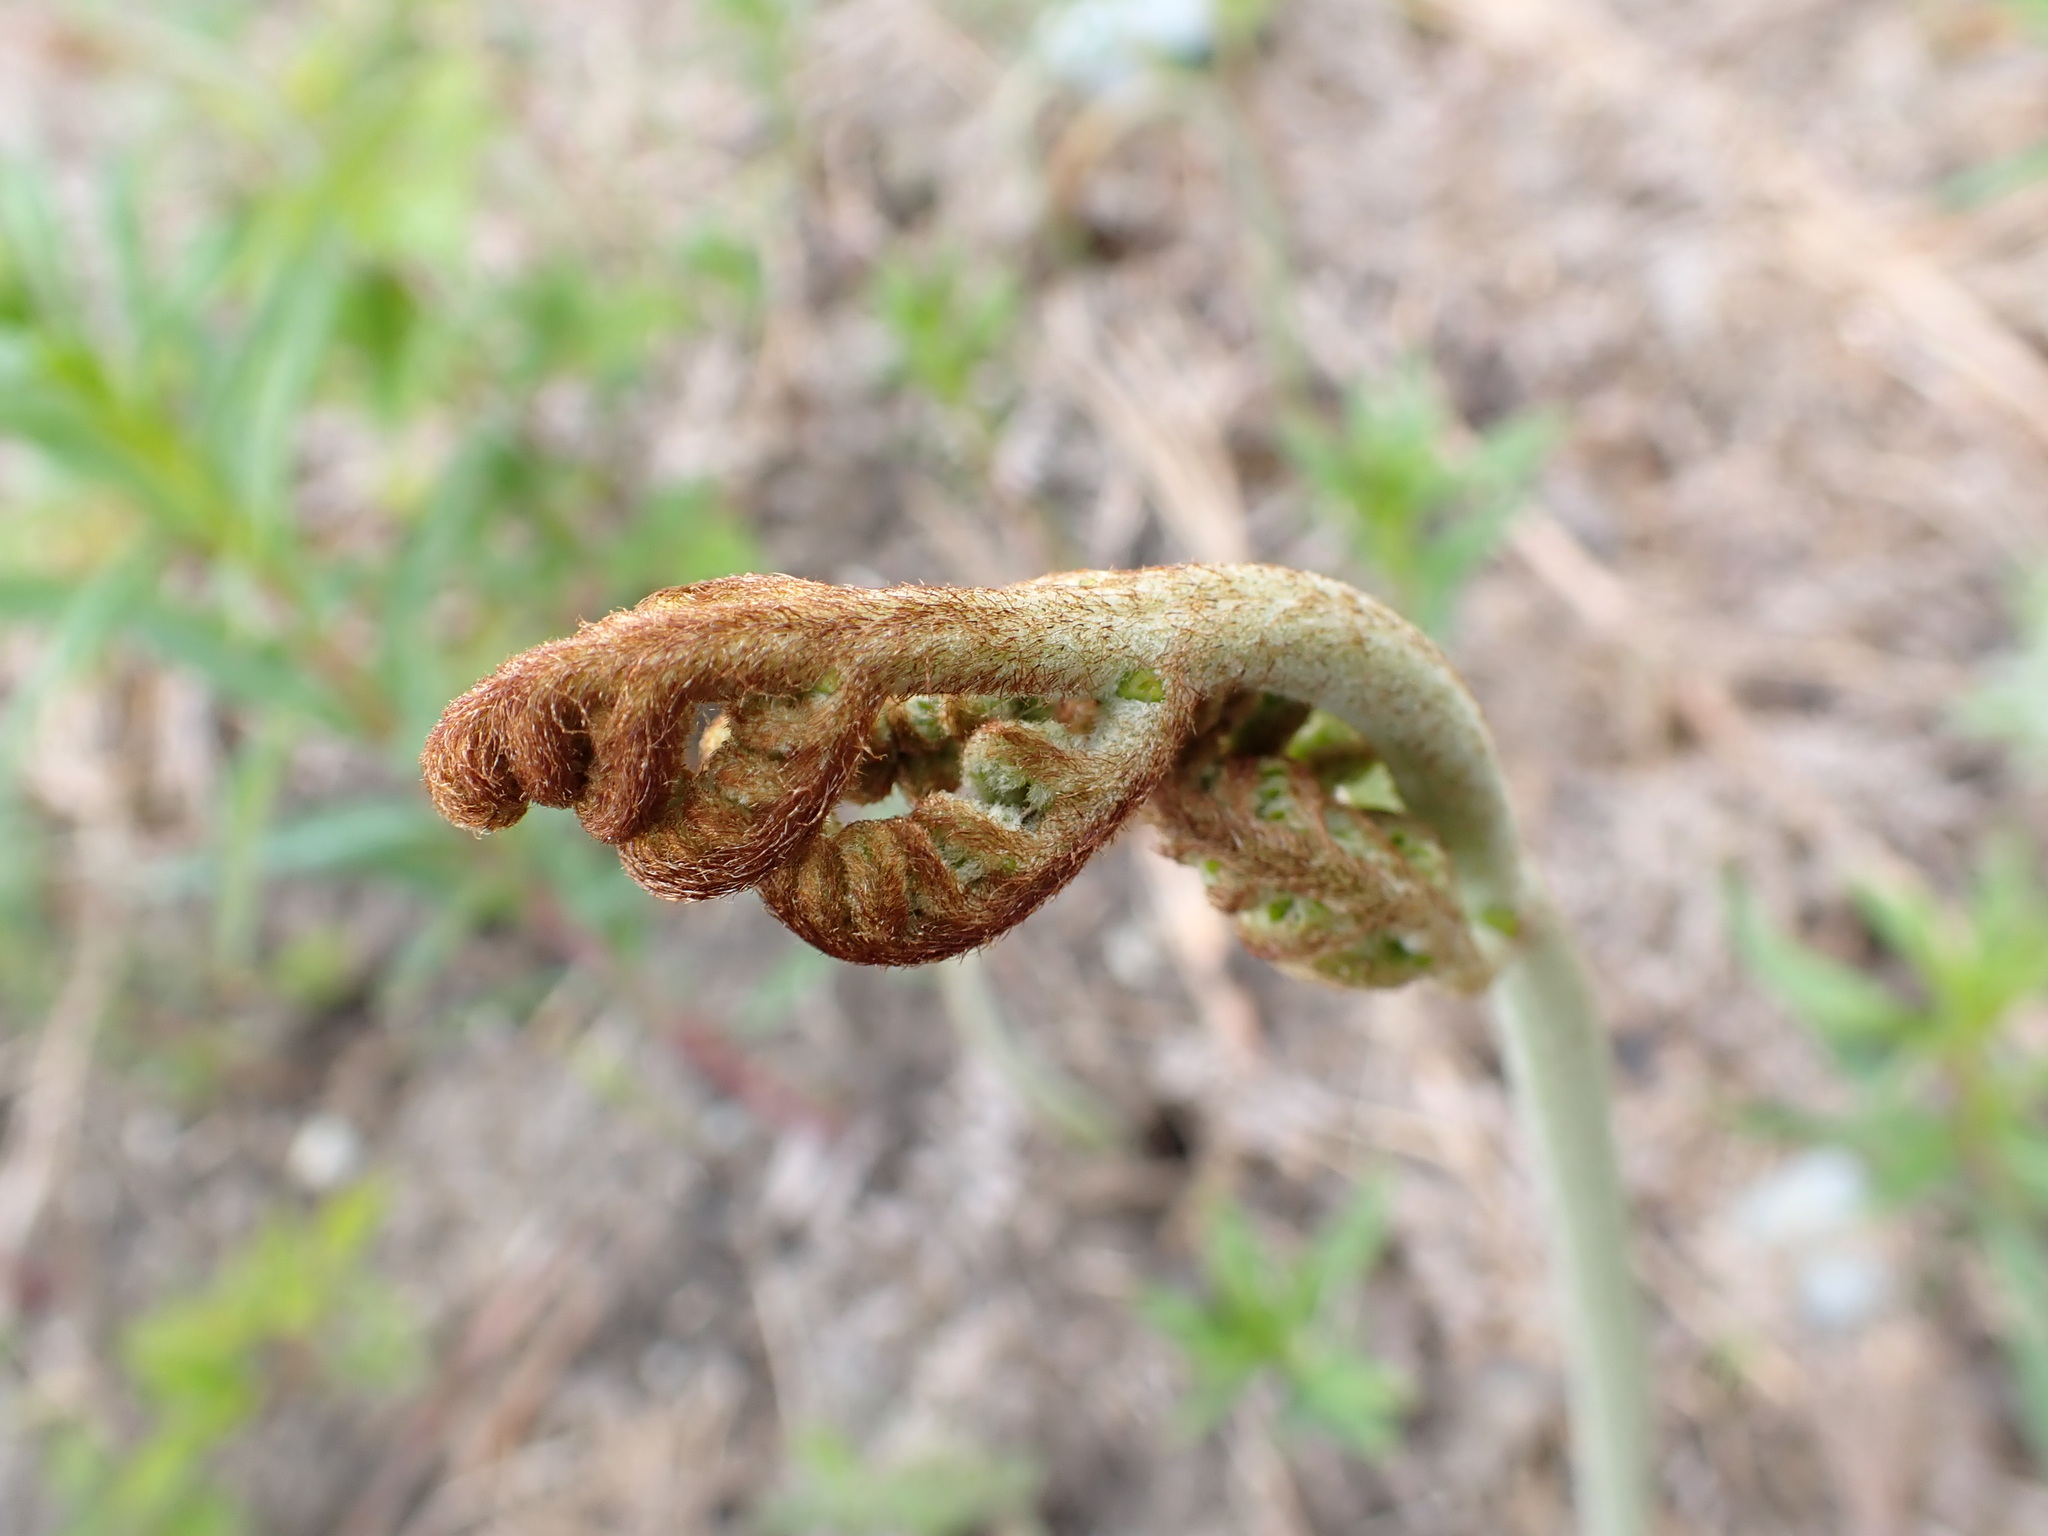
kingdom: Plantae
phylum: Tracheophyta
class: Polypodiopsida
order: Polypodiales
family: Dennstaedtiaceae
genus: Pteridium
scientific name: Pteridium aquilinum
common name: Bracken
